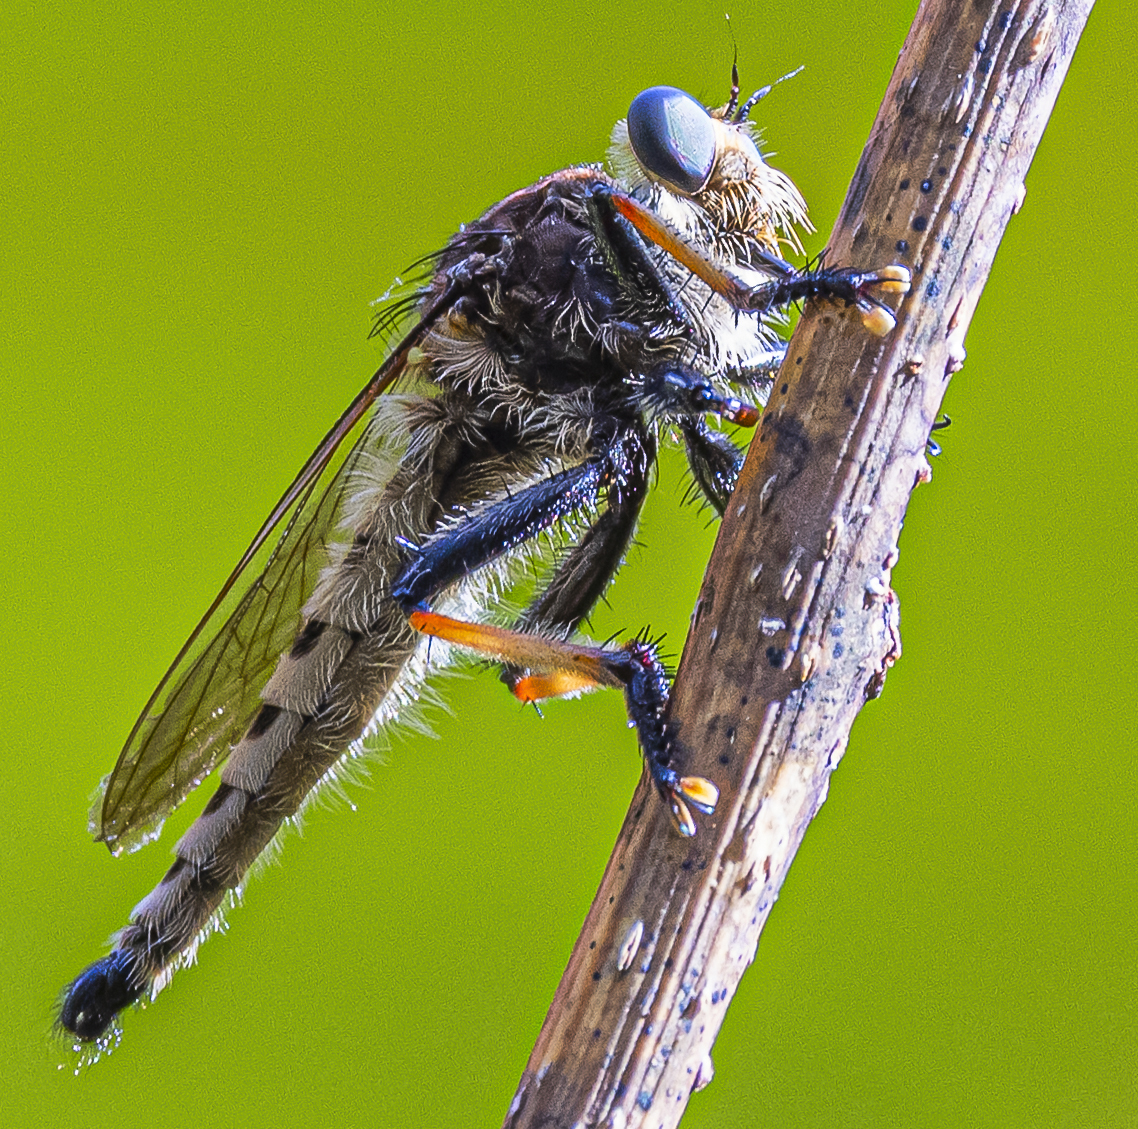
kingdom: Animalia
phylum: Arthropoda
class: Insecta
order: Diptera
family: Asilidae
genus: Promachus
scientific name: Promachus rufipes
